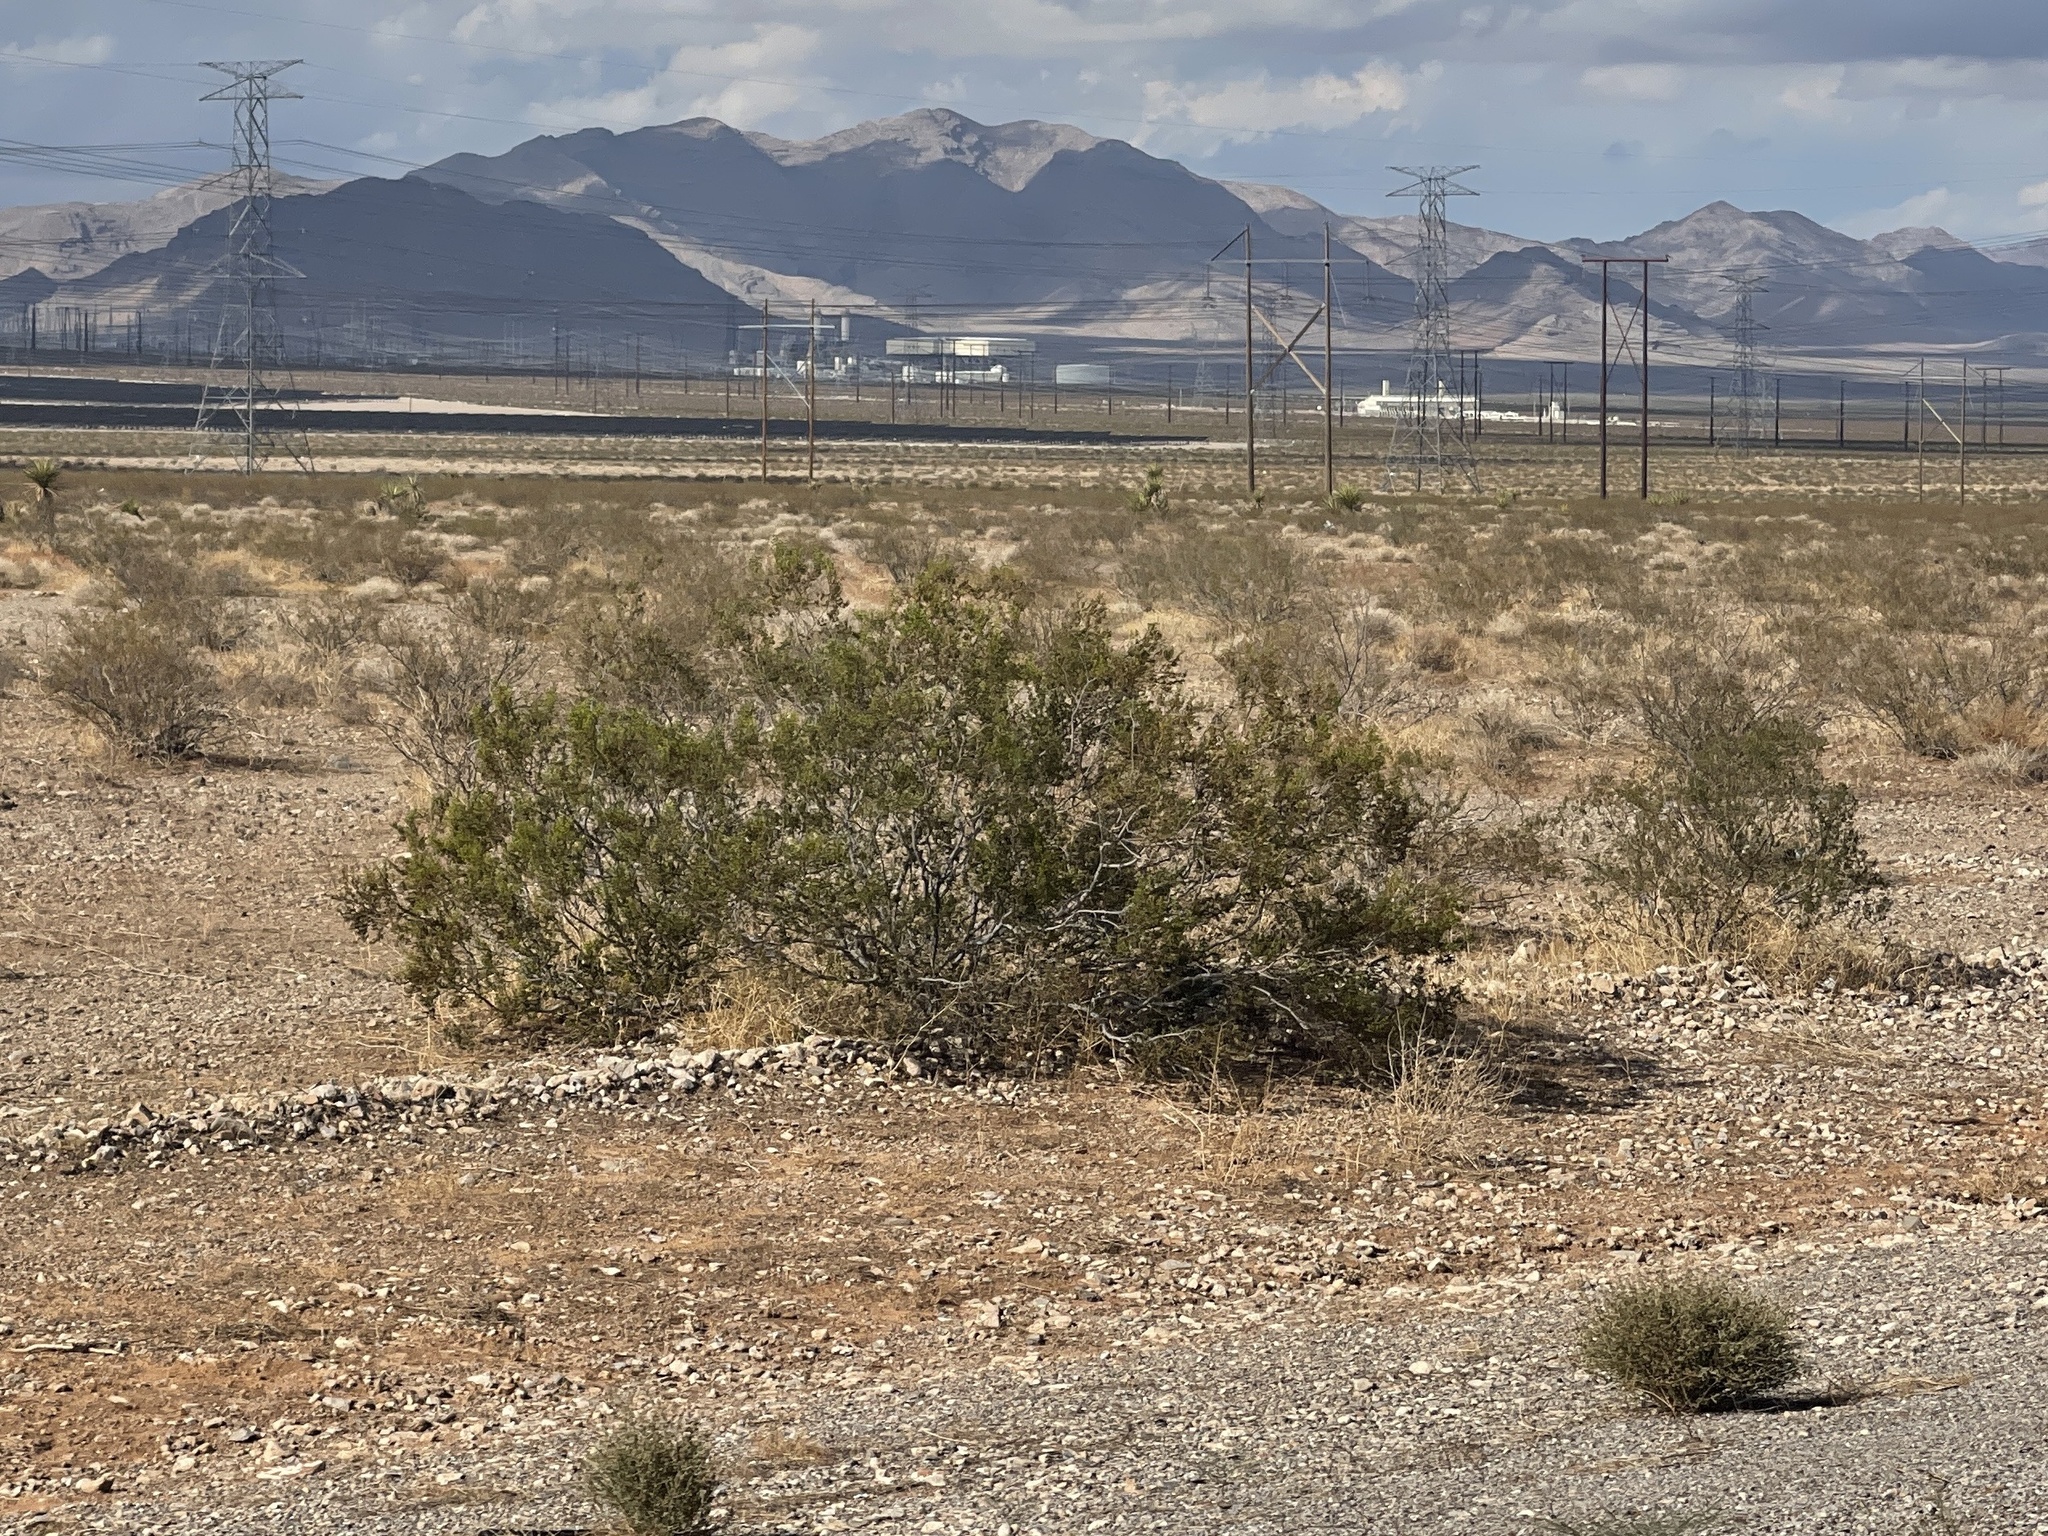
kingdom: Plantae
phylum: Tracheophyta
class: Magnoliopsida
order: Zygophyllales
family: Zygophyllaceae
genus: Larrea
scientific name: Larrea tridentata
